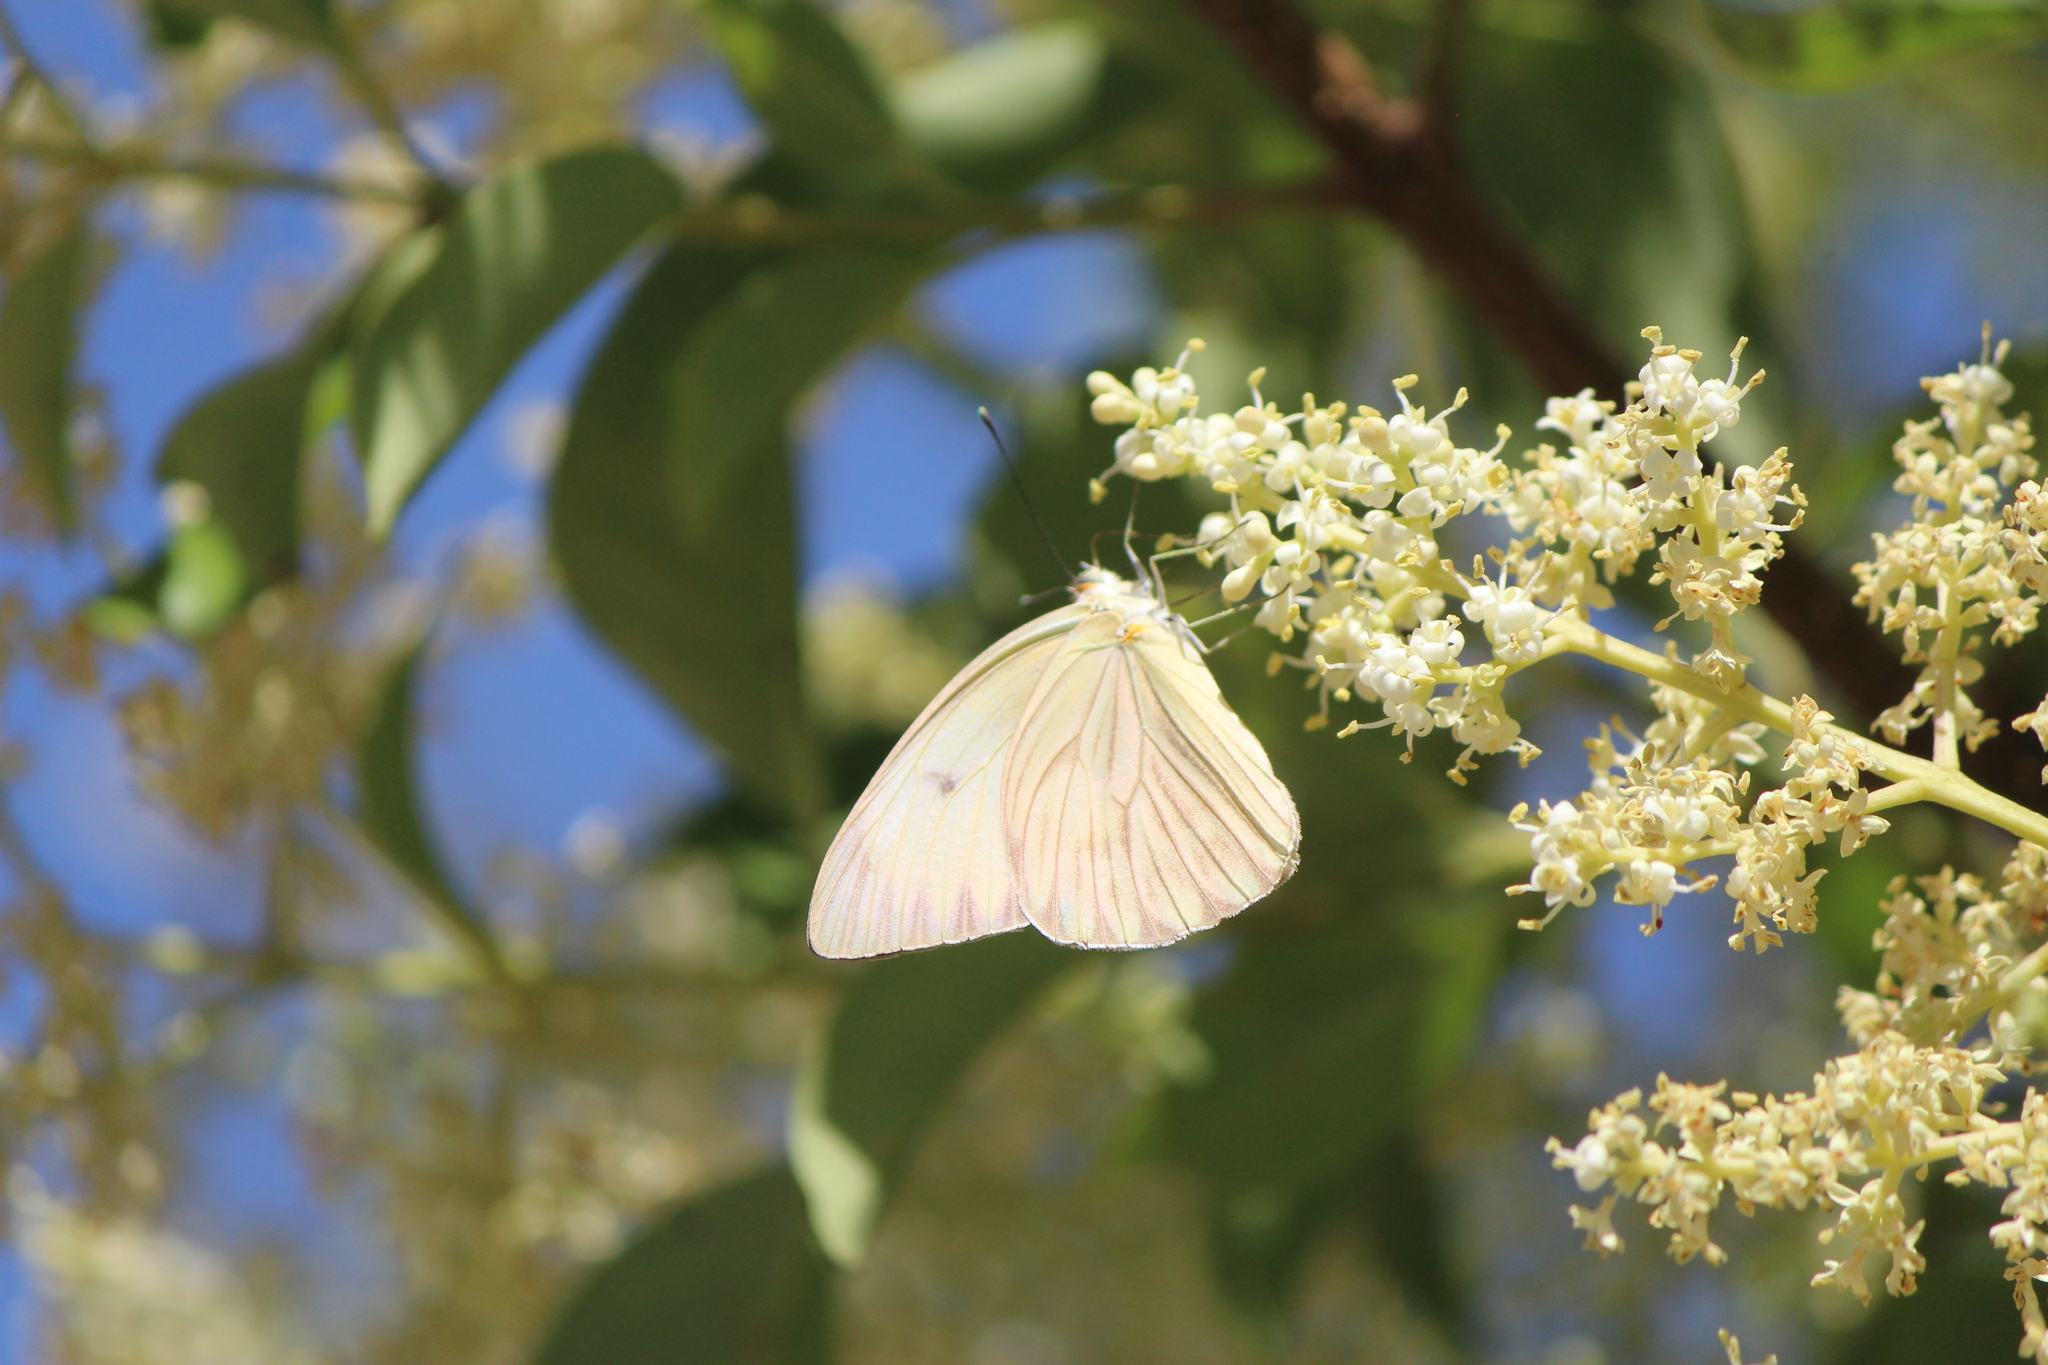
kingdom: Animalia
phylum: Arthropoda
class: Insecta
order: Lepidoptera
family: Pieridae
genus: Ascia
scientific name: Ascia monuste
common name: Great southern white
